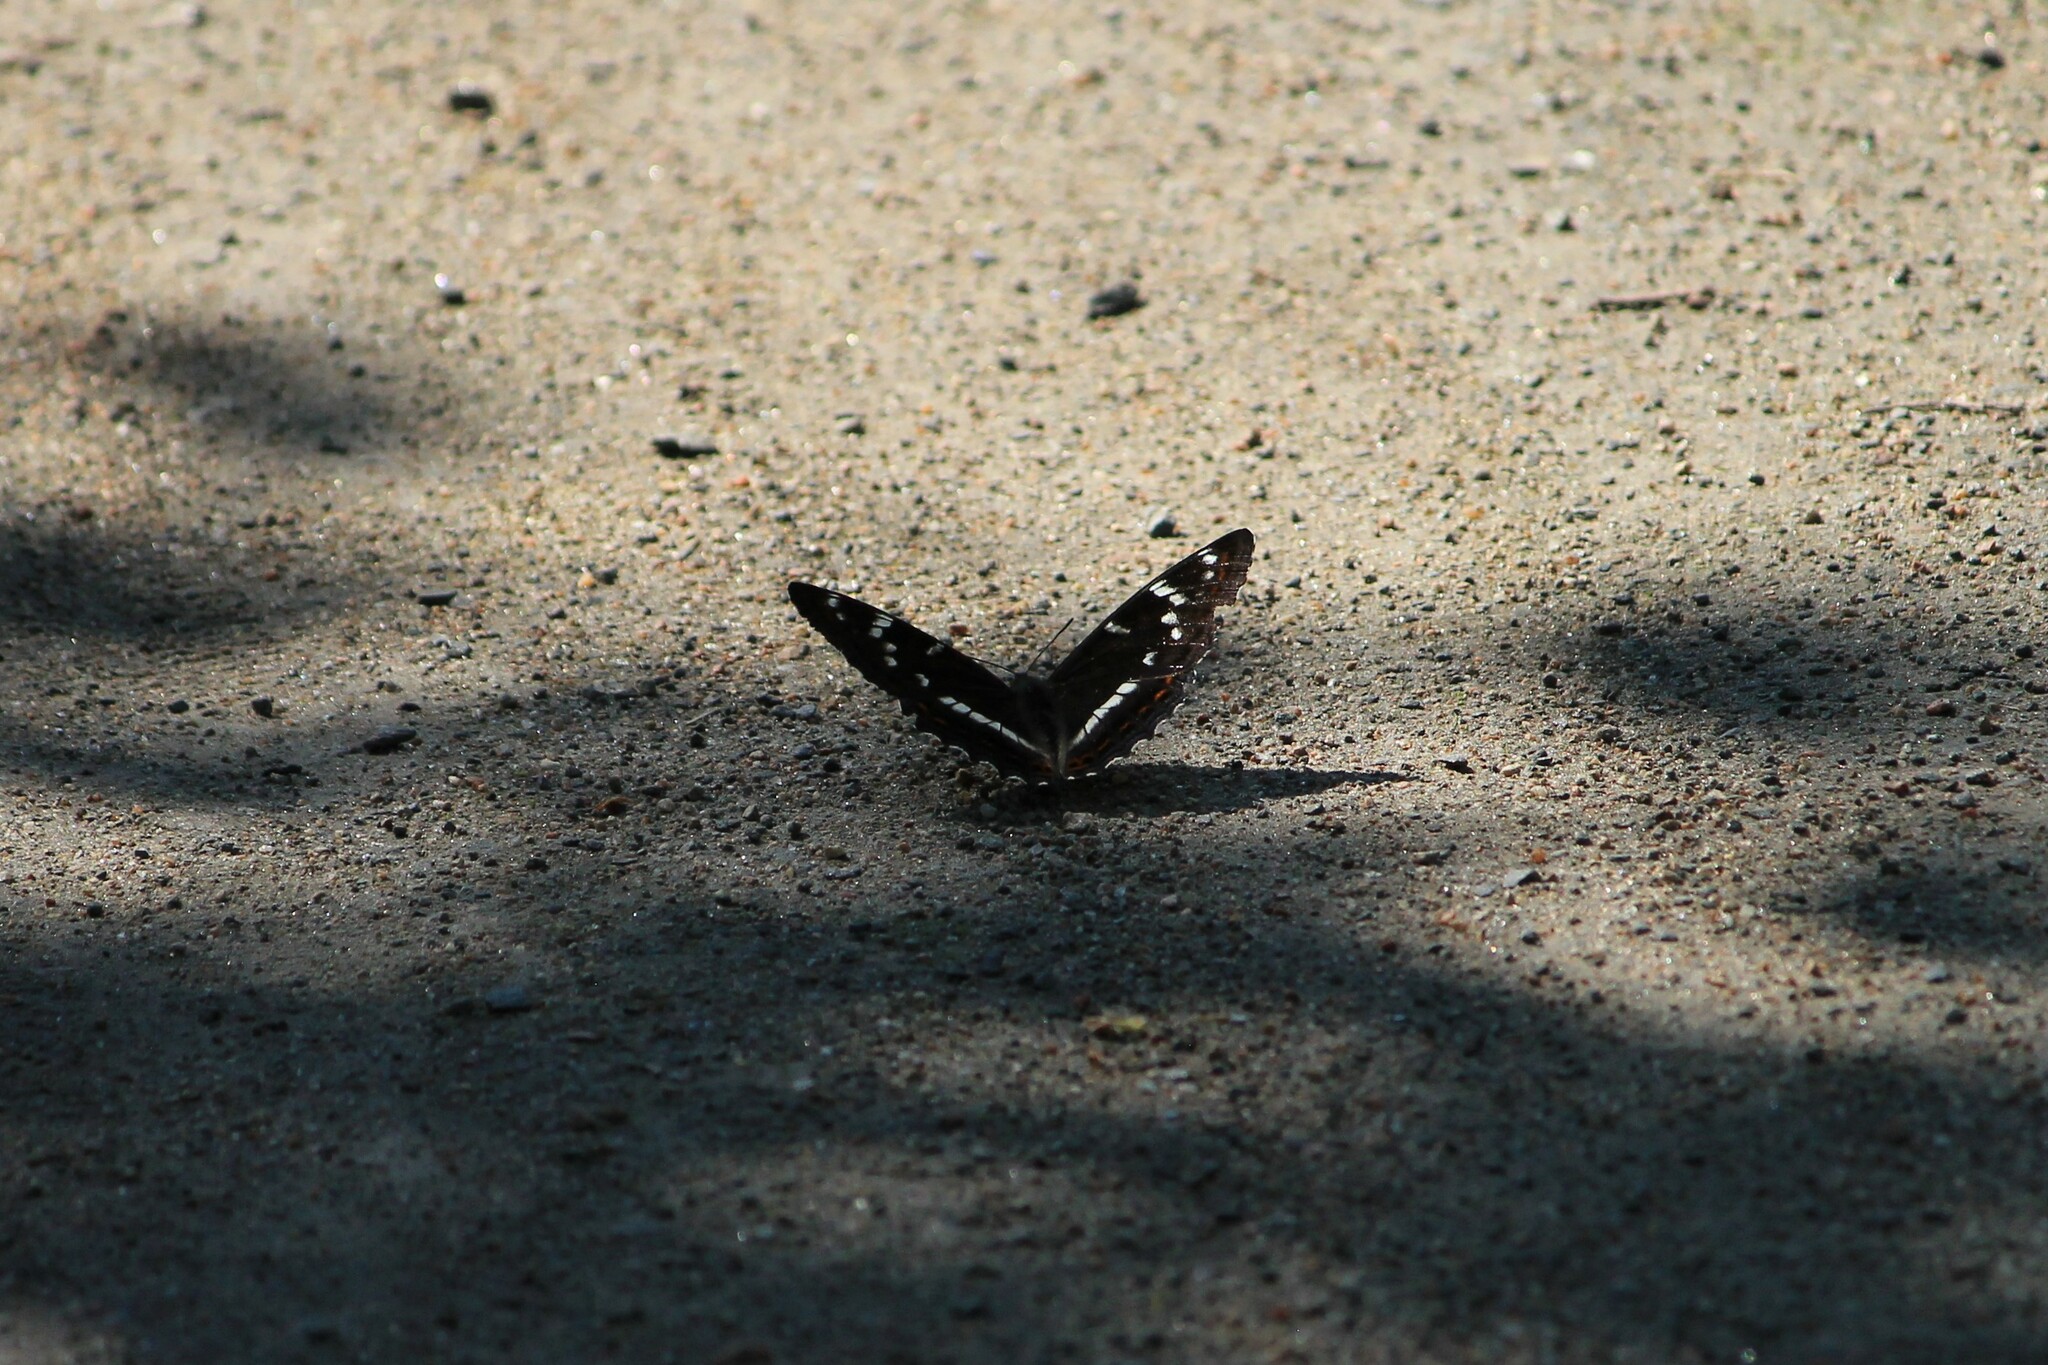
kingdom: Animalia
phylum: Arthropoda
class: Insecta
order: Lepidoptera
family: Nymphalidae
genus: Limenitis
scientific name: Limenitis populi
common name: Poplar admiral
